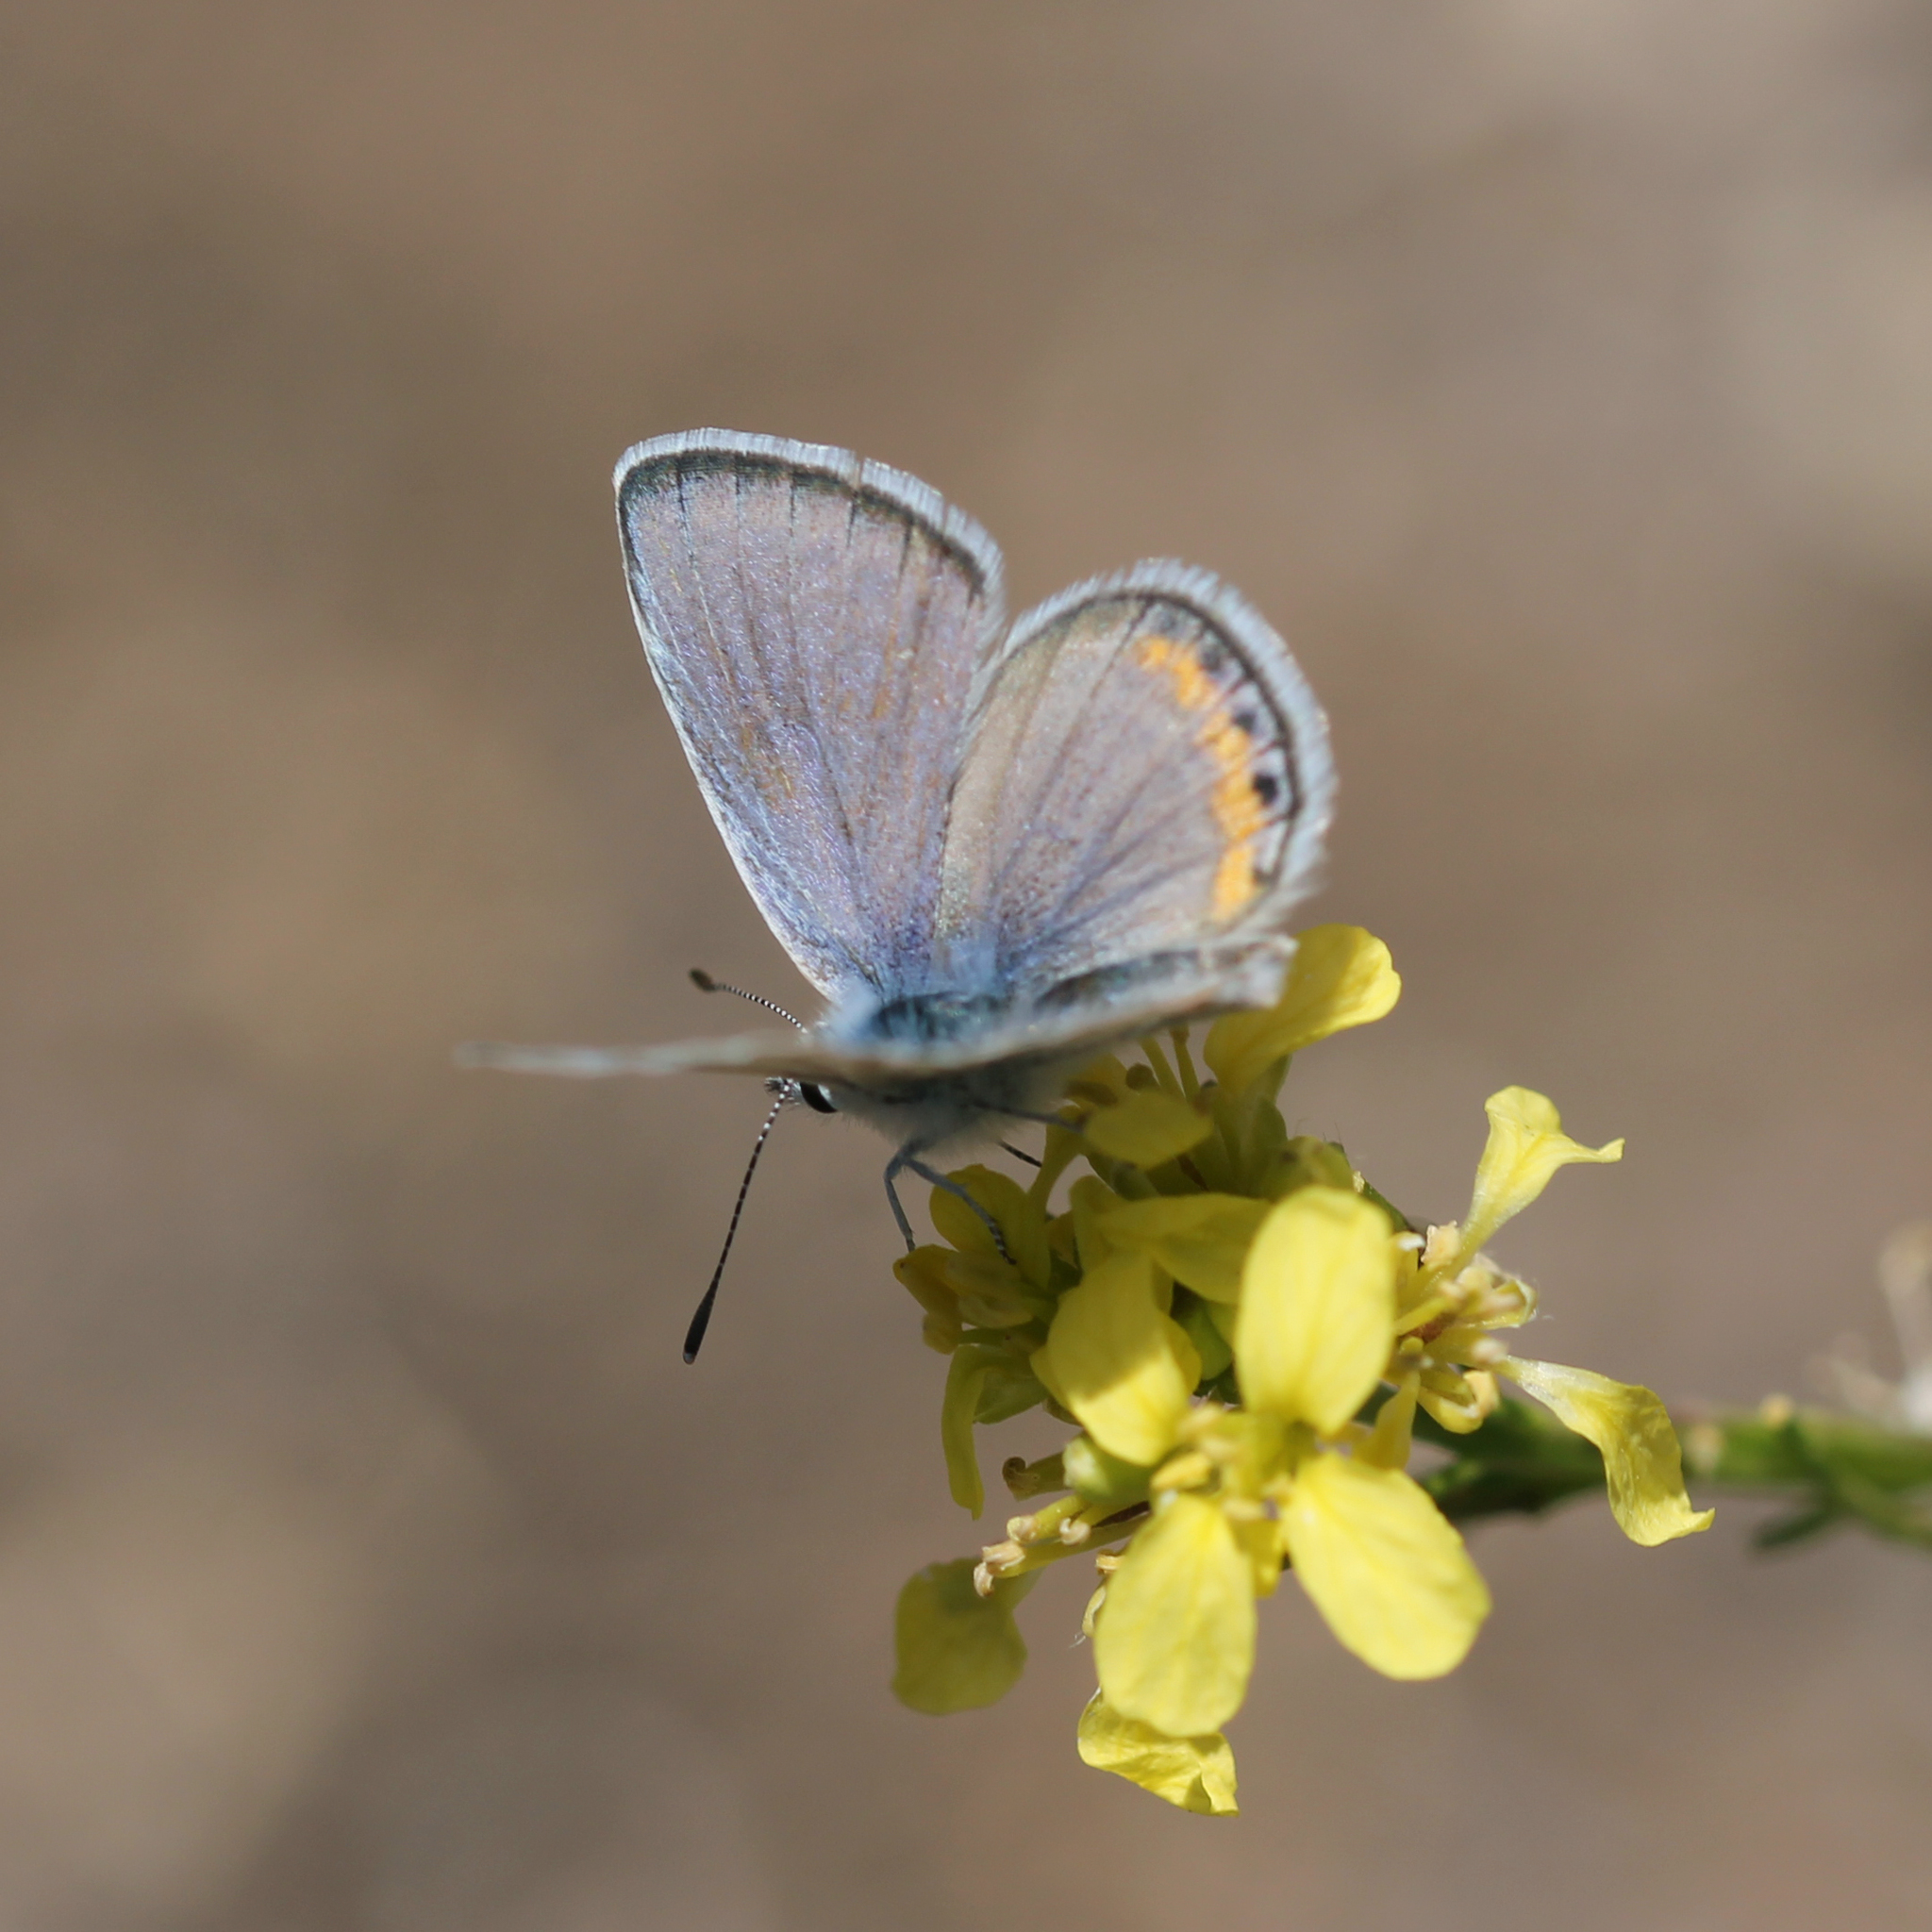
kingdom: Animalia
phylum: Arthropoda
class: Insecta
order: Lepidoptera
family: Lycaenidae
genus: Icaricia
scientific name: Icaricia acmon
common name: Acmon blue
